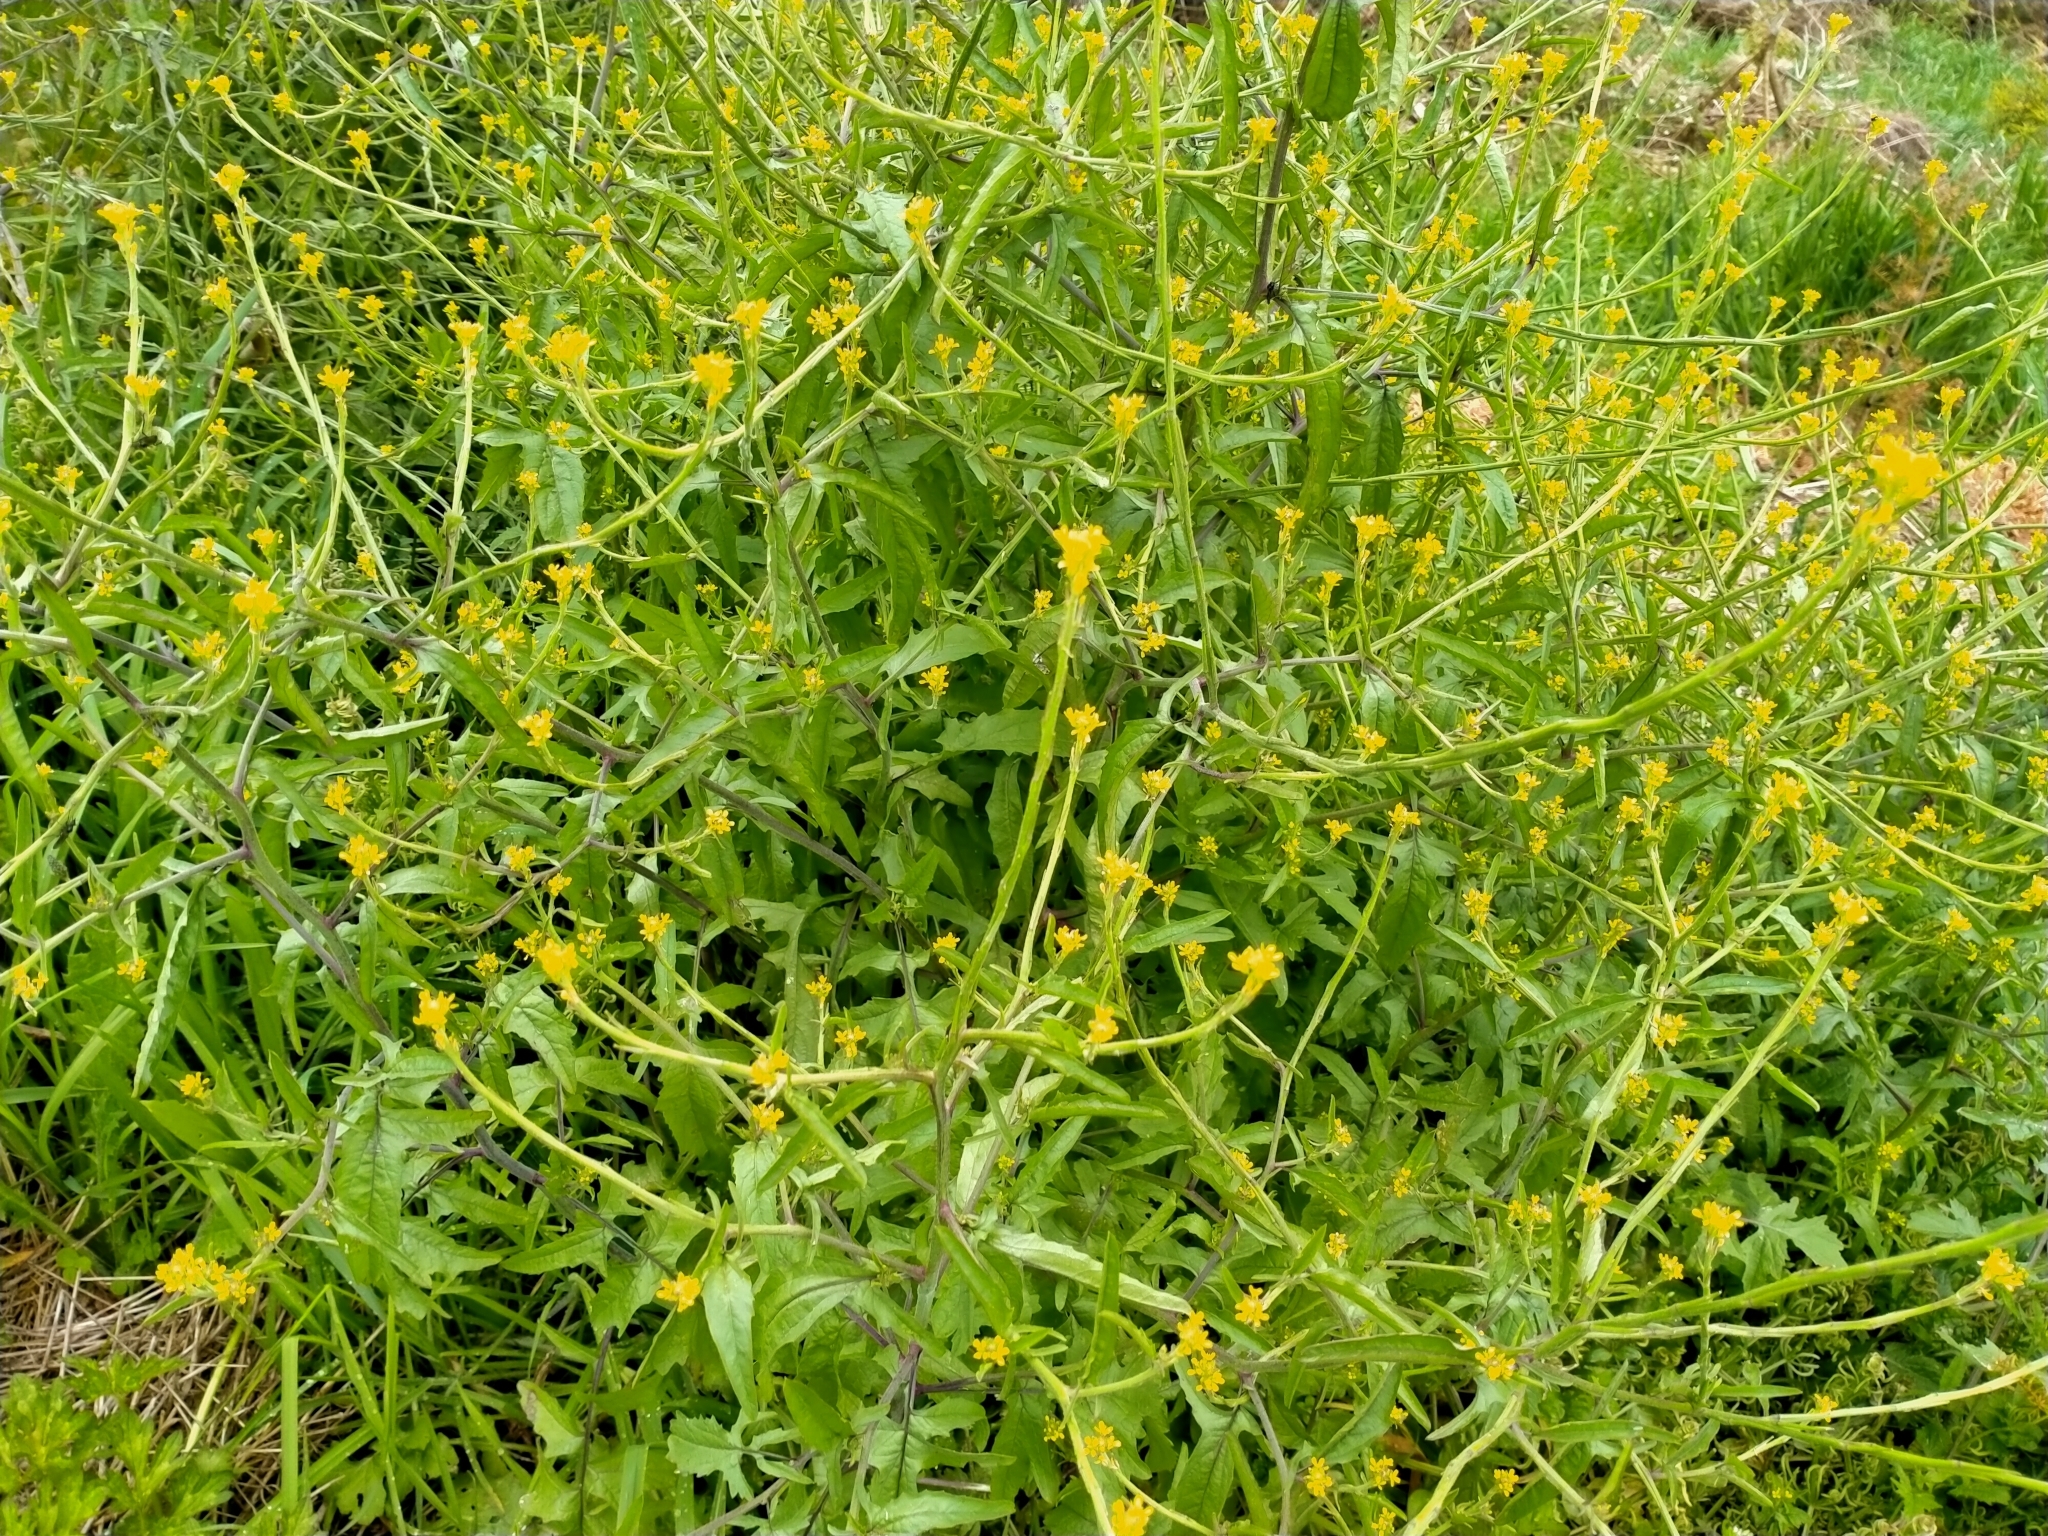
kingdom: Plantae
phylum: Tracheophyta
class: Magnoliopsida
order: Brassicales
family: Brassicaceae
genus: Sisymbrium
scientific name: Sisymbrium officinale
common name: Hedge mustard
